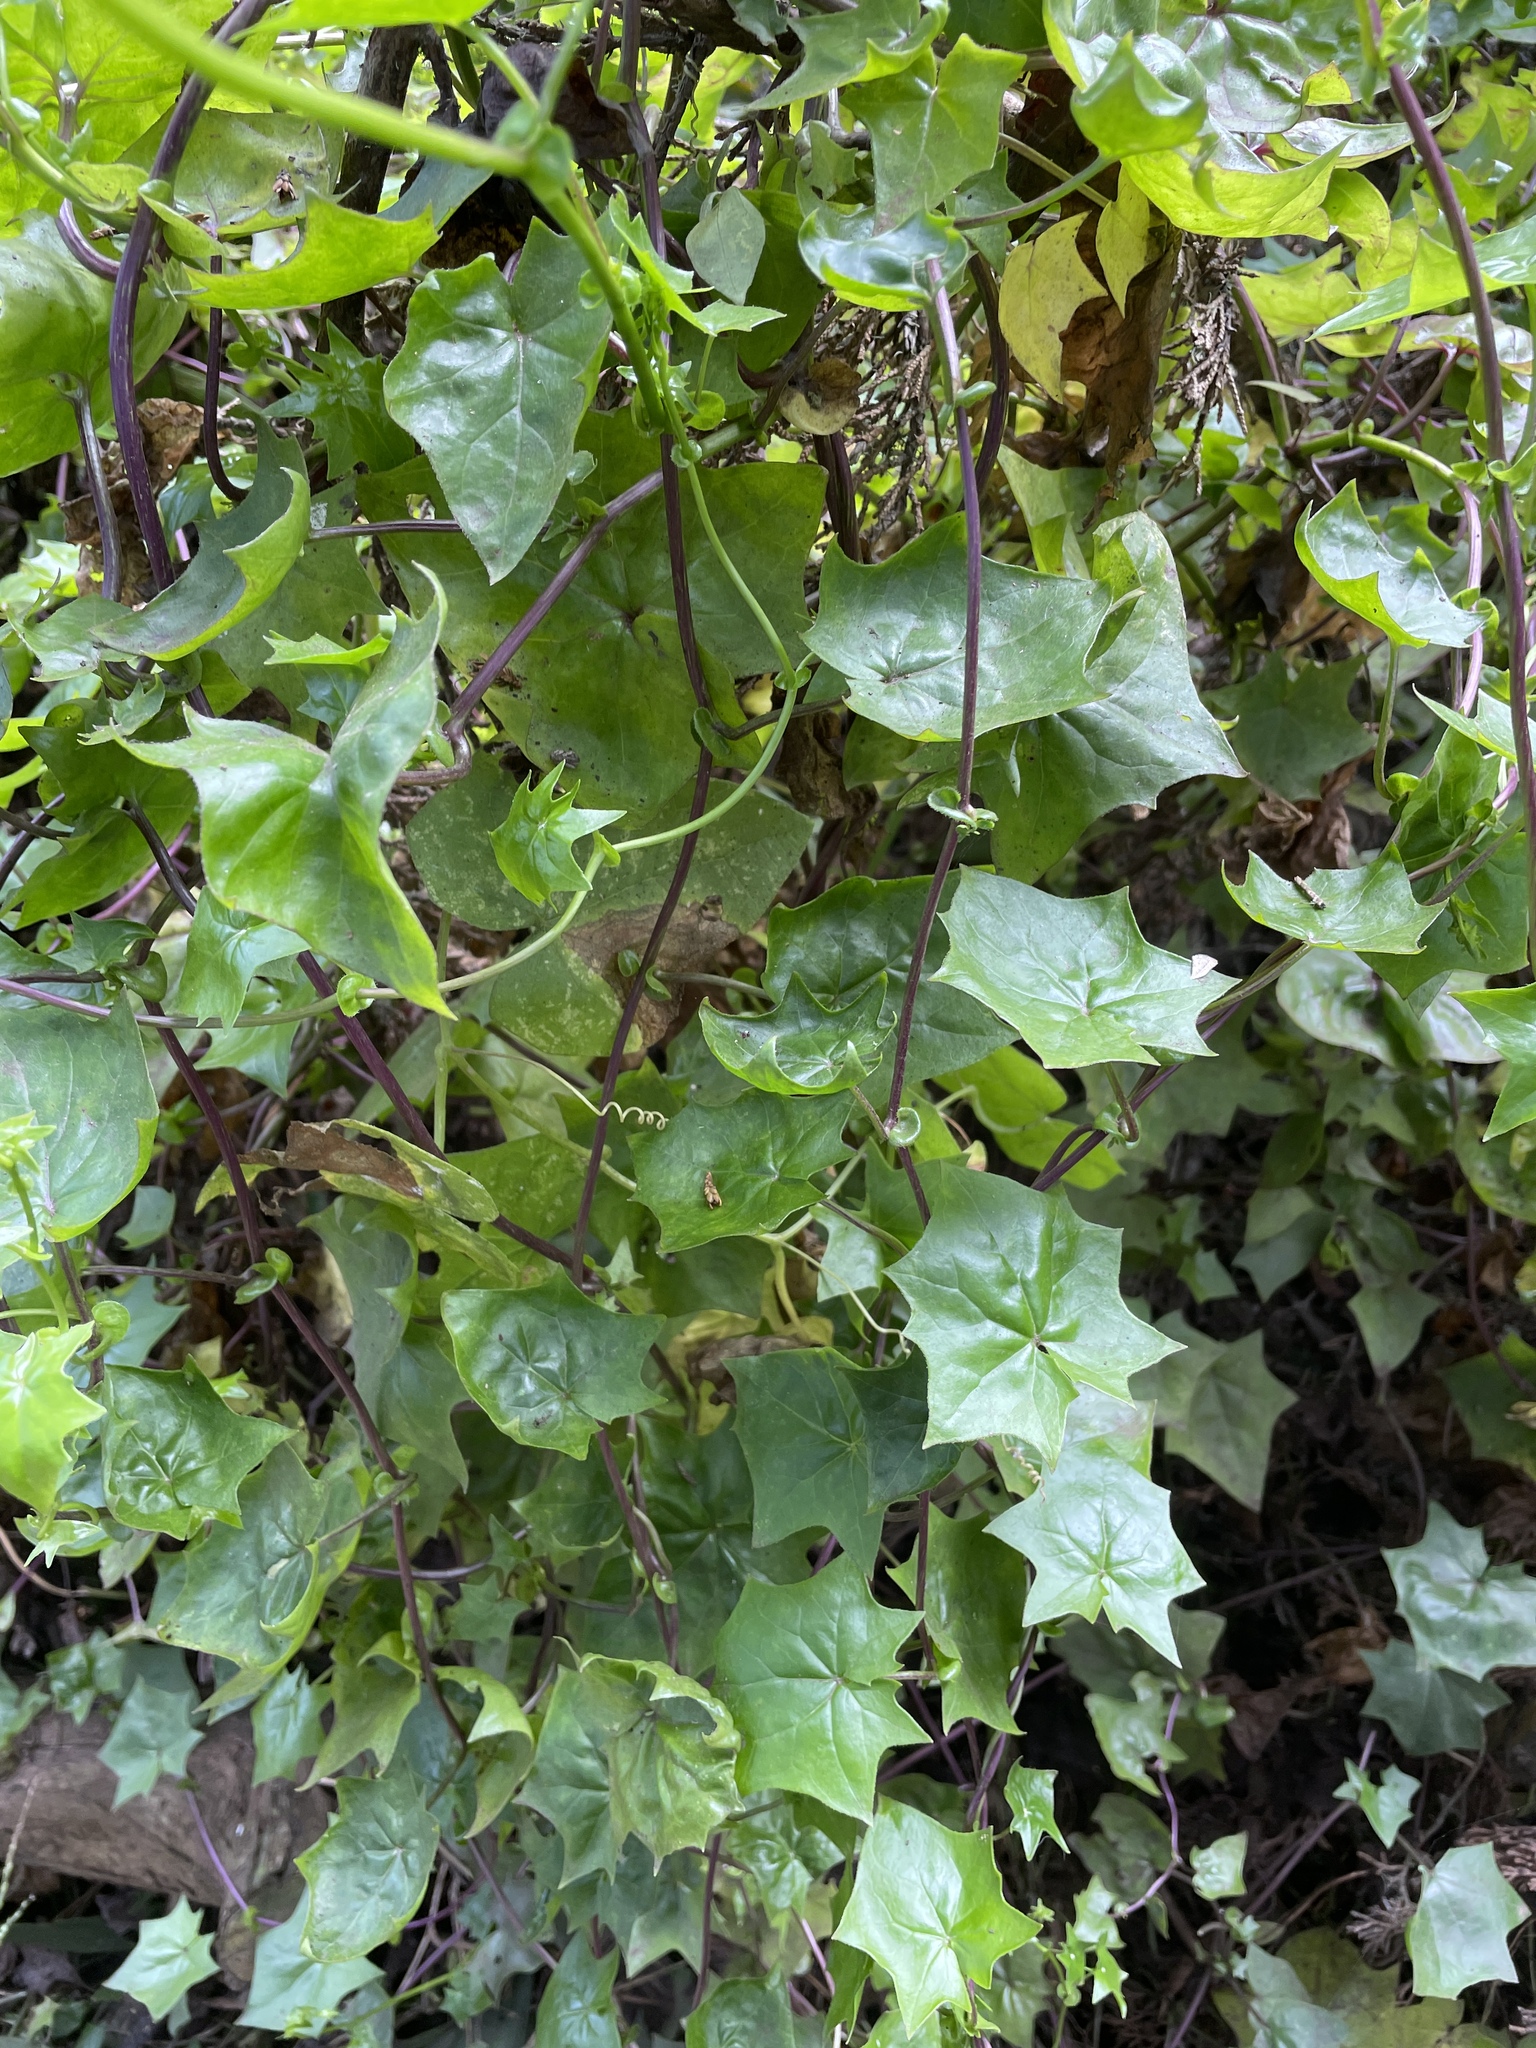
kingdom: Plantae
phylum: Tracheophyta
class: Magnoliopsida
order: Asterales
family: Asteraceae
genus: Delairea
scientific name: Delairea odorata
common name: Cape-ivy
